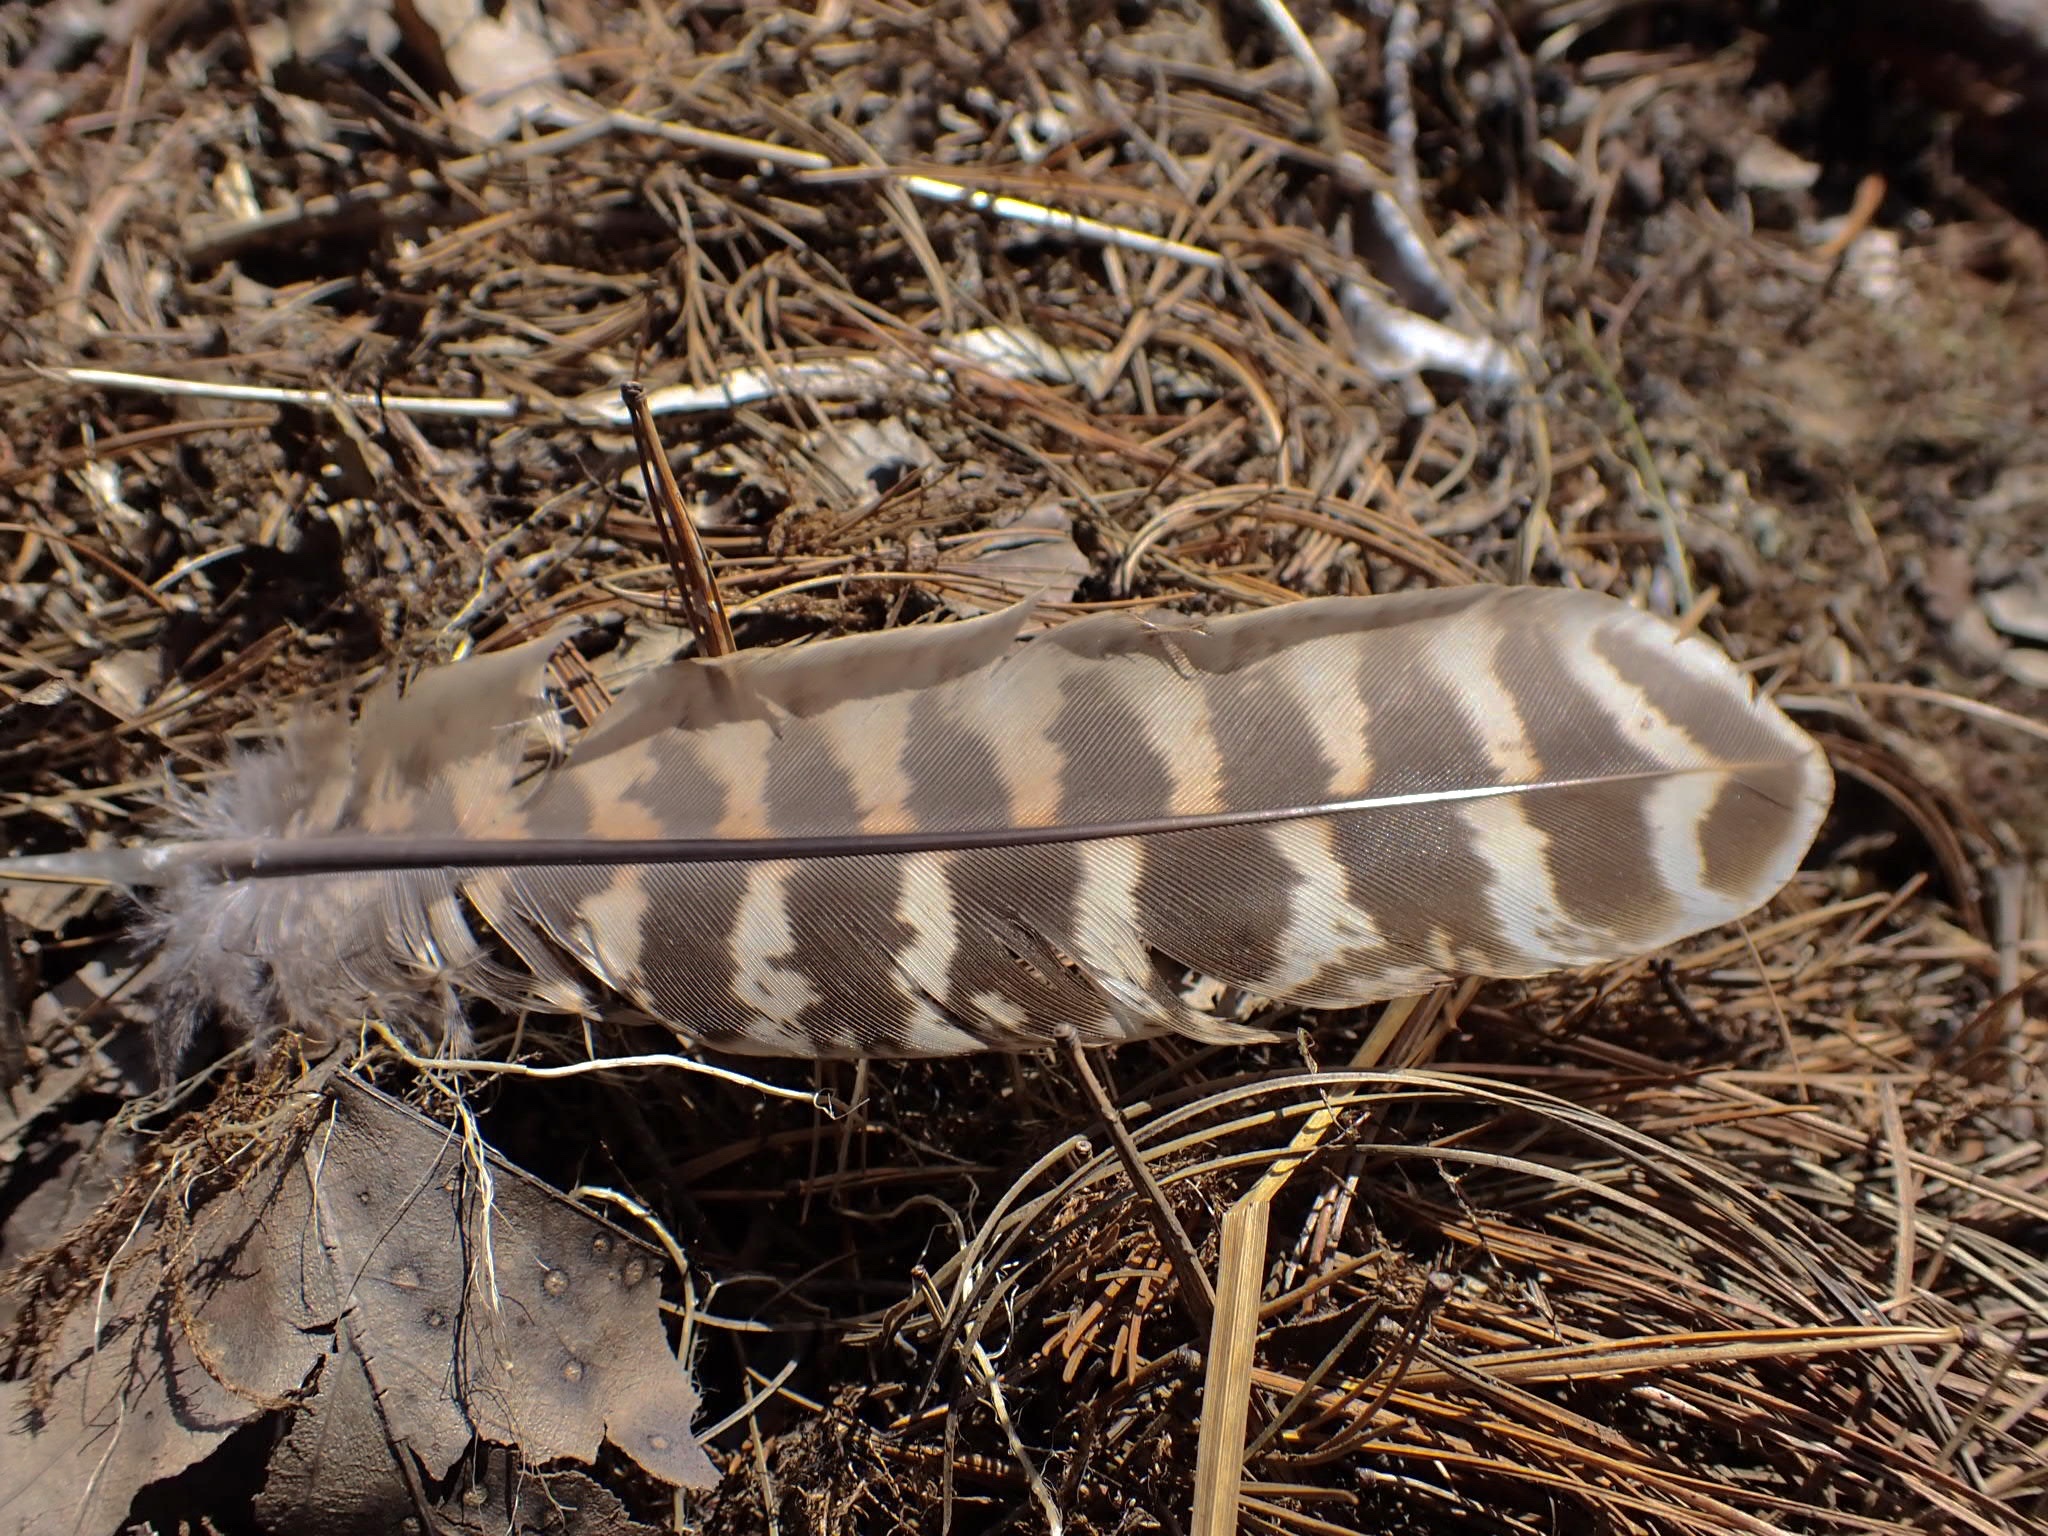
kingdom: Animalia
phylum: Chordata
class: Aves
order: Galliformes
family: Phasianidae
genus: Phasianus
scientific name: Phasianus colchicus
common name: Common pheasant
